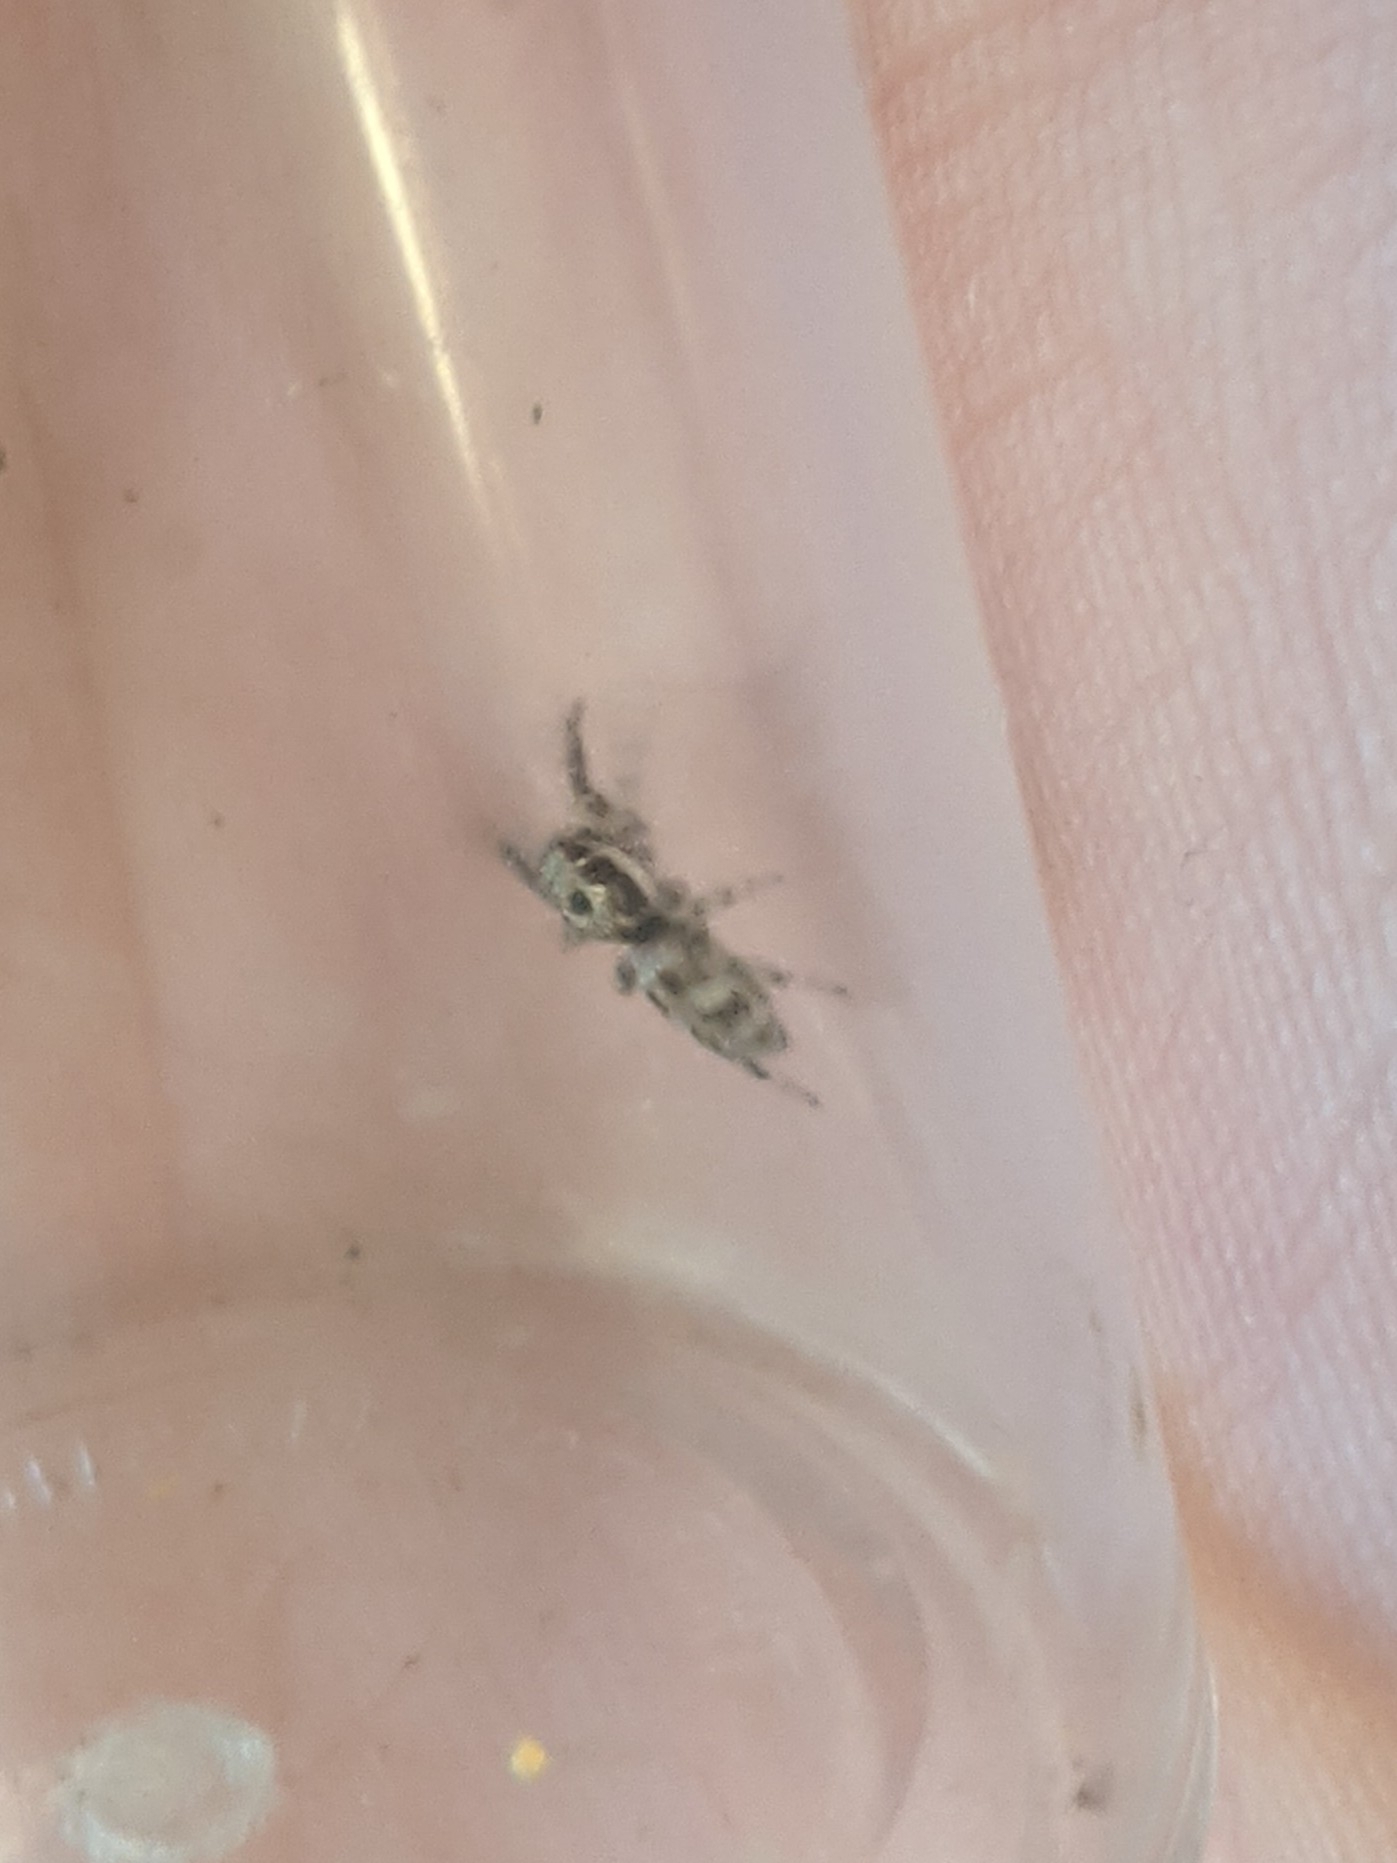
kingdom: Animalia
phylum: Arthropoda
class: Arachnida
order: Araneae
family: Salticidae
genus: Salticus
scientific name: Salticus scenicus
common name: Zebra jumper
